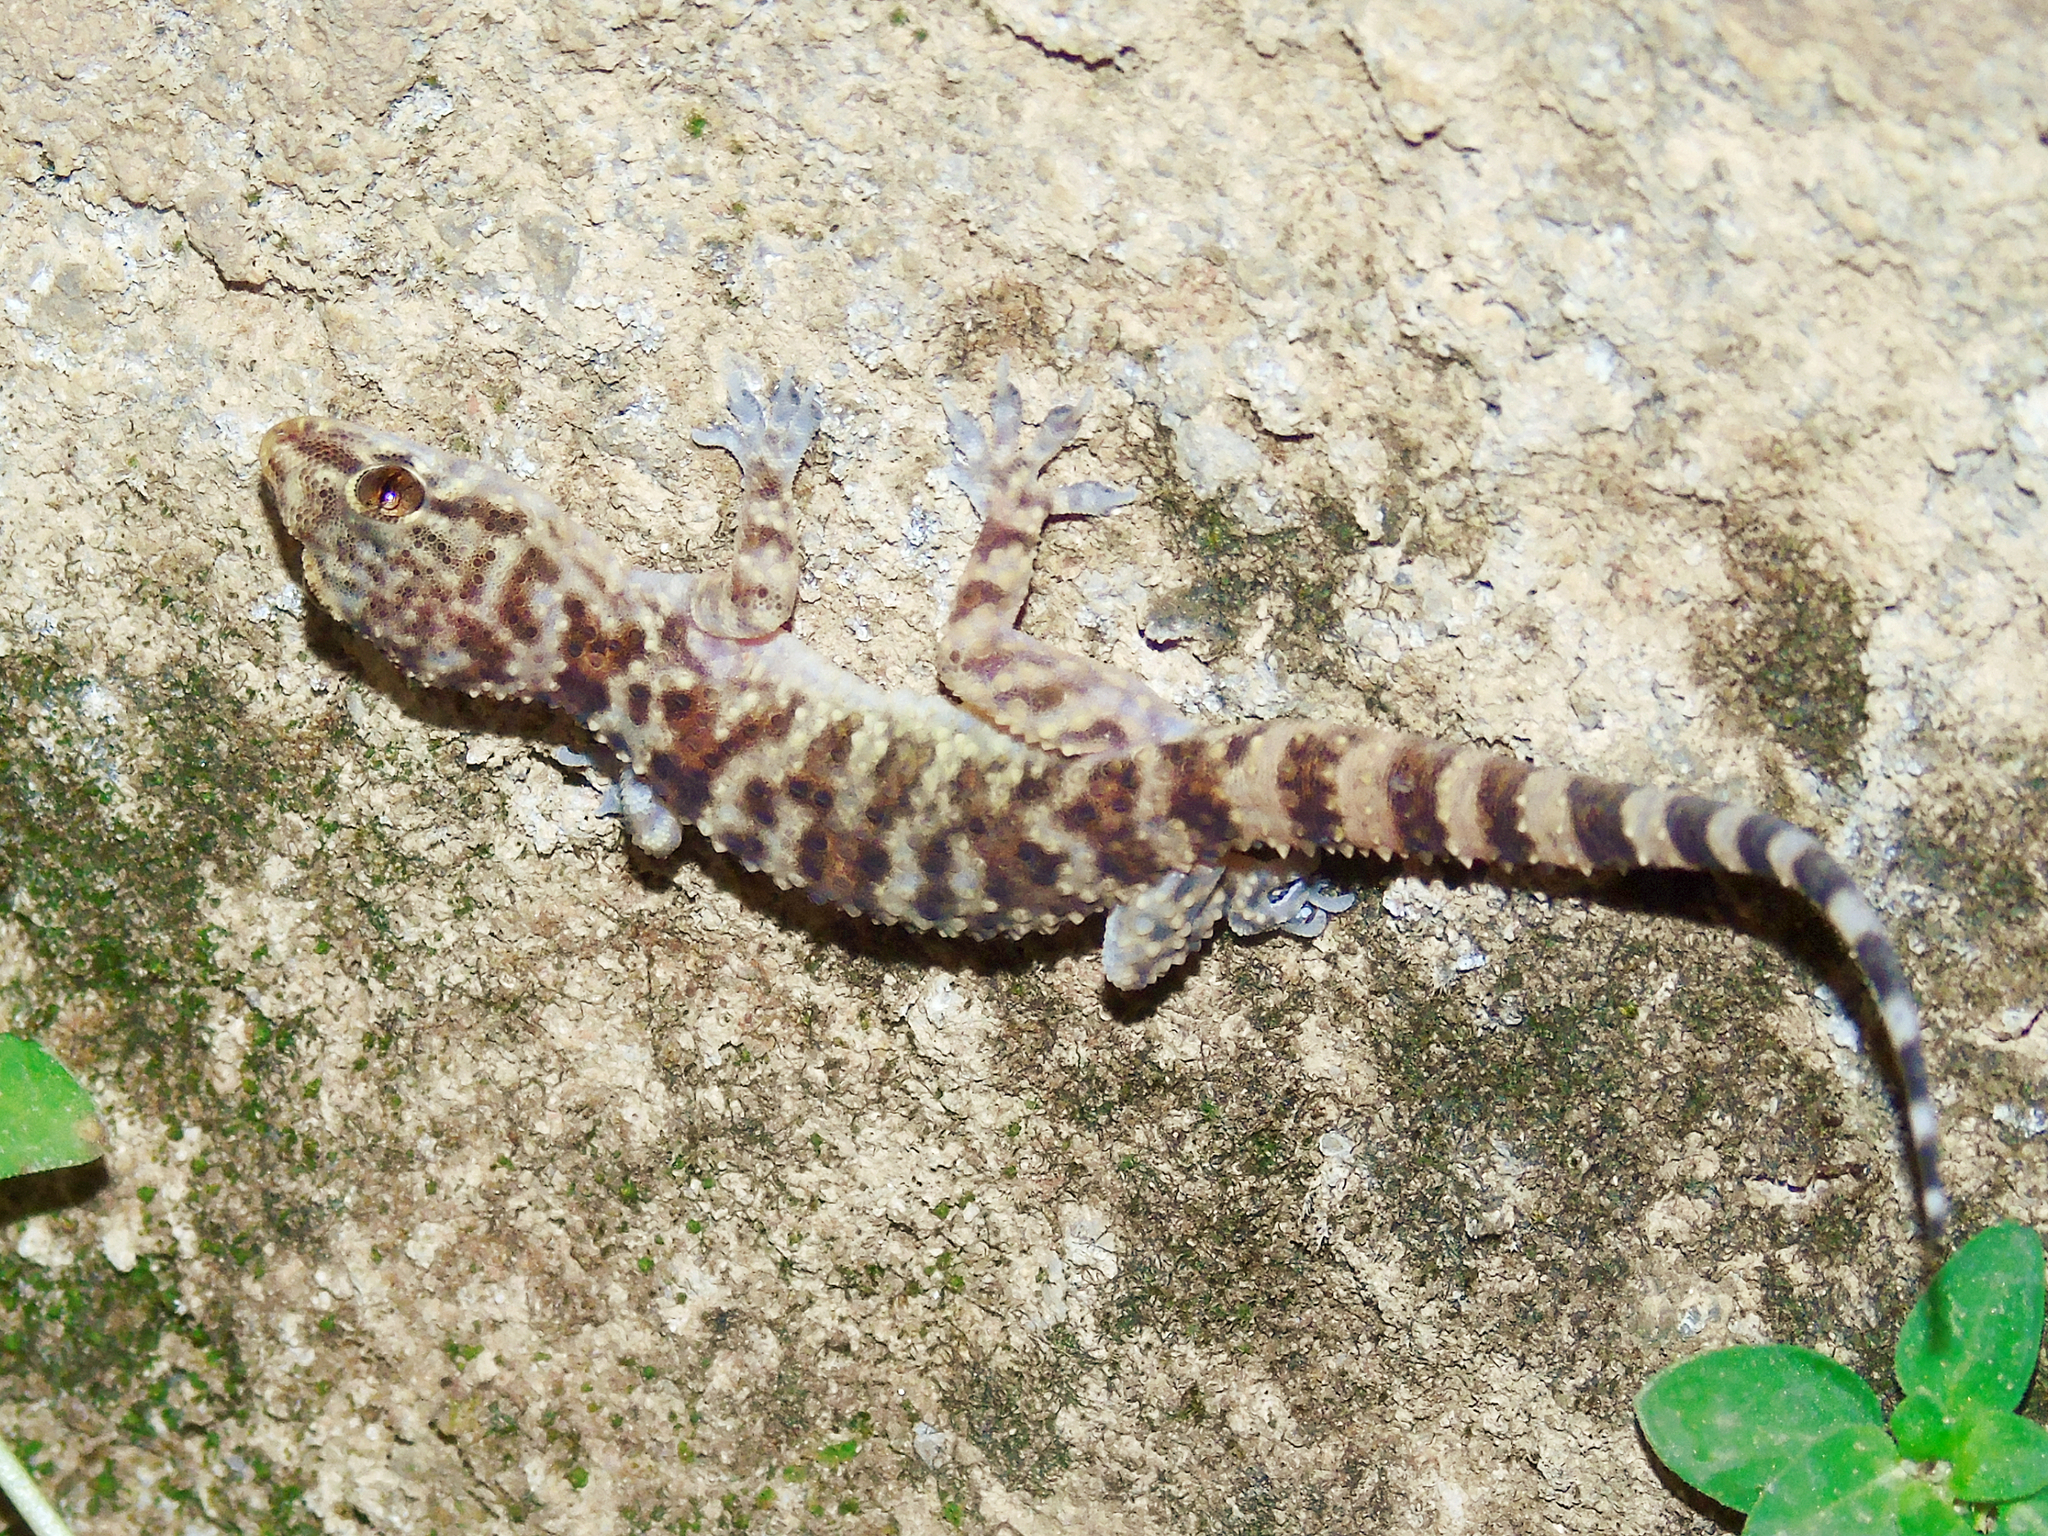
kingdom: Animalia
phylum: Chordata
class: Squamata
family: Gekkonidae
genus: Hemidactylus
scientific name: Hemidactylus turcicus
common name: Turkish gecko
